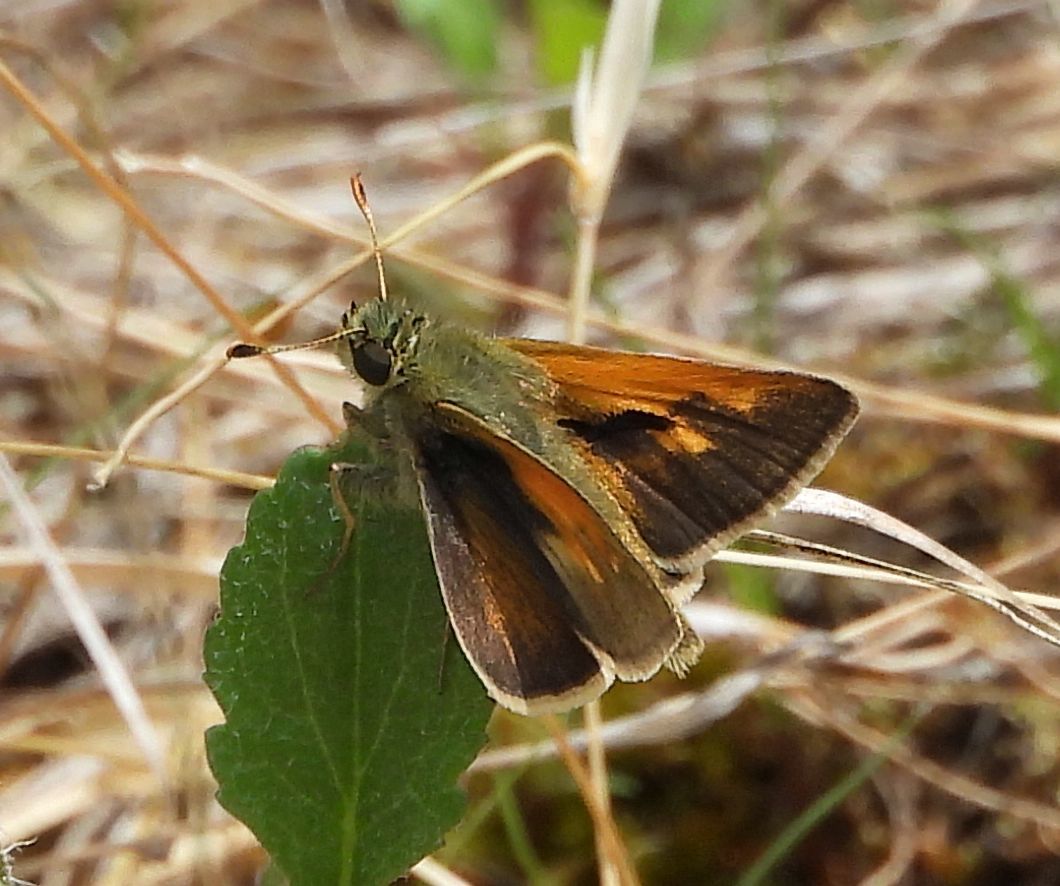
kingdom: Animalia
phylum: Arthropoda
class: Insecta
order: Lepidoptera
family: Hesperiidae
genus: Polites
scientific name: Polites themistocles
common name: Tawny-edged skipper
